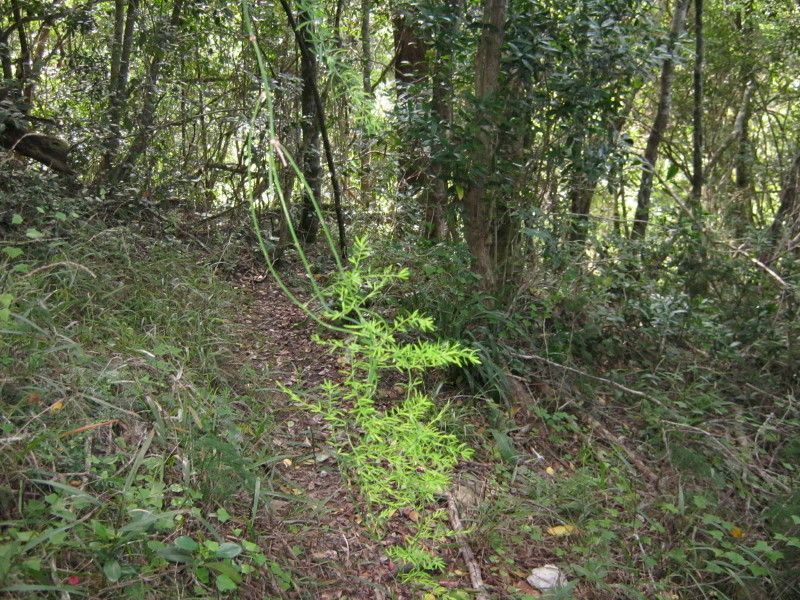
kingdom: Plantae
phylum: Tracheophyta
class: Liliopsida
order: Asparagales
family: Asparagaceae
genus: Asparagus
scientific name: Asparagus densiflorus
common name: Asparagus fern
